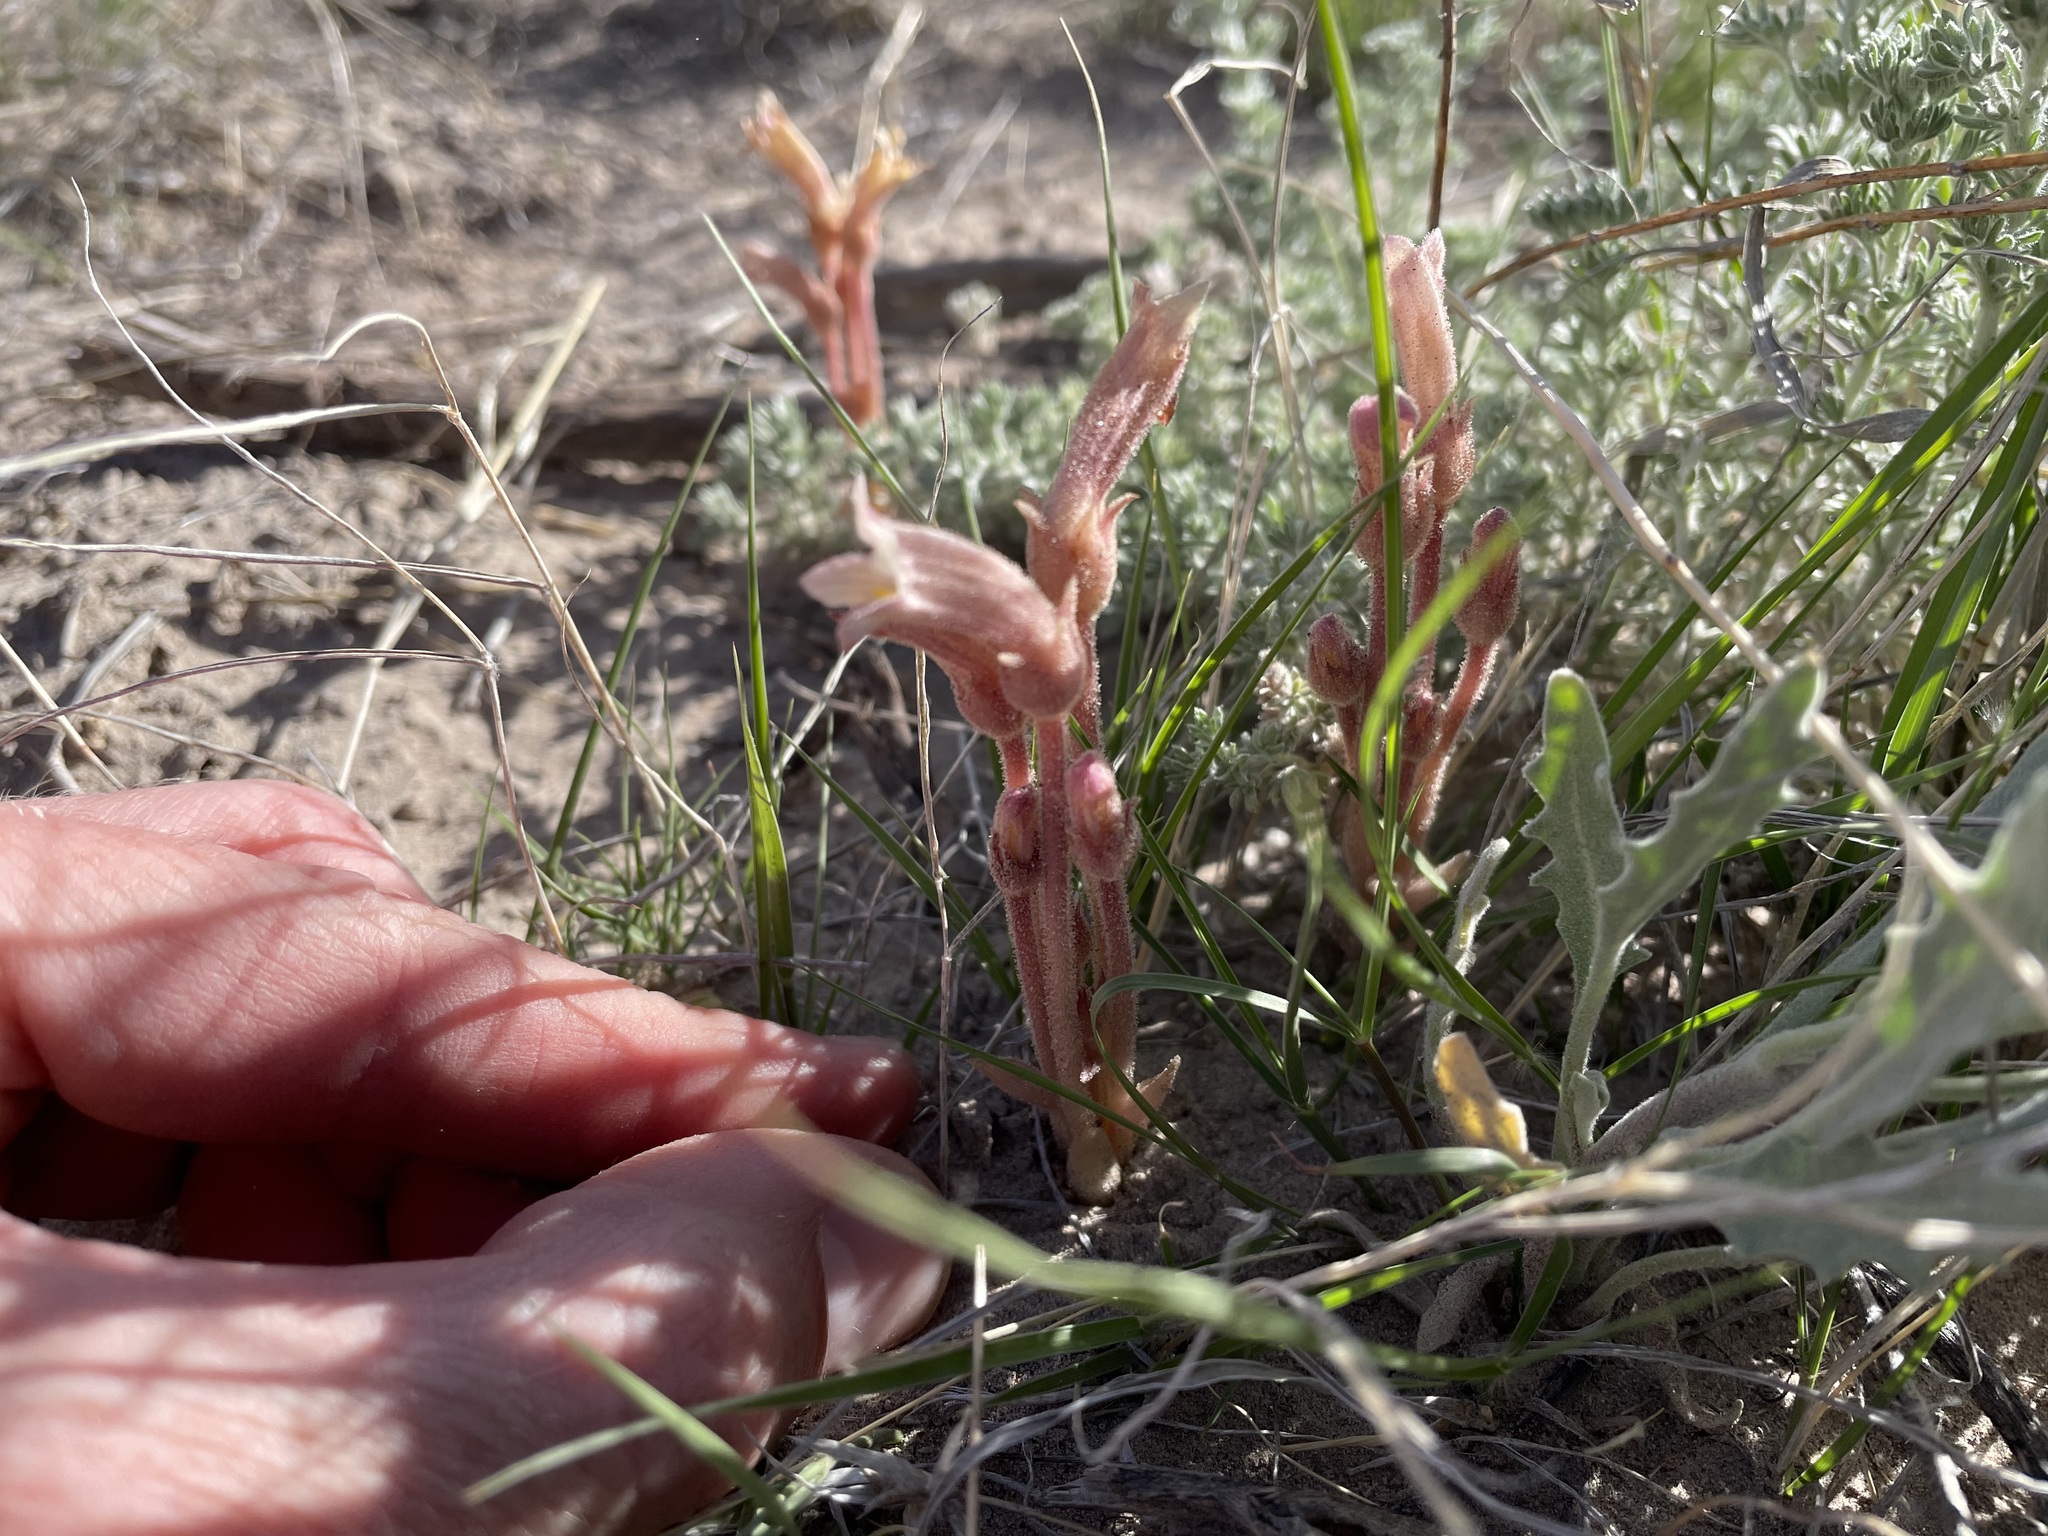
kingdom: Plantae
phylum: Tracheophyta
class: Magnoliopsida
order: Lamiales
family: Orobanchaceae
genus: Aphyllon
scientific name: Aphyllon fasciculatum
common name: Clustered broomrape
